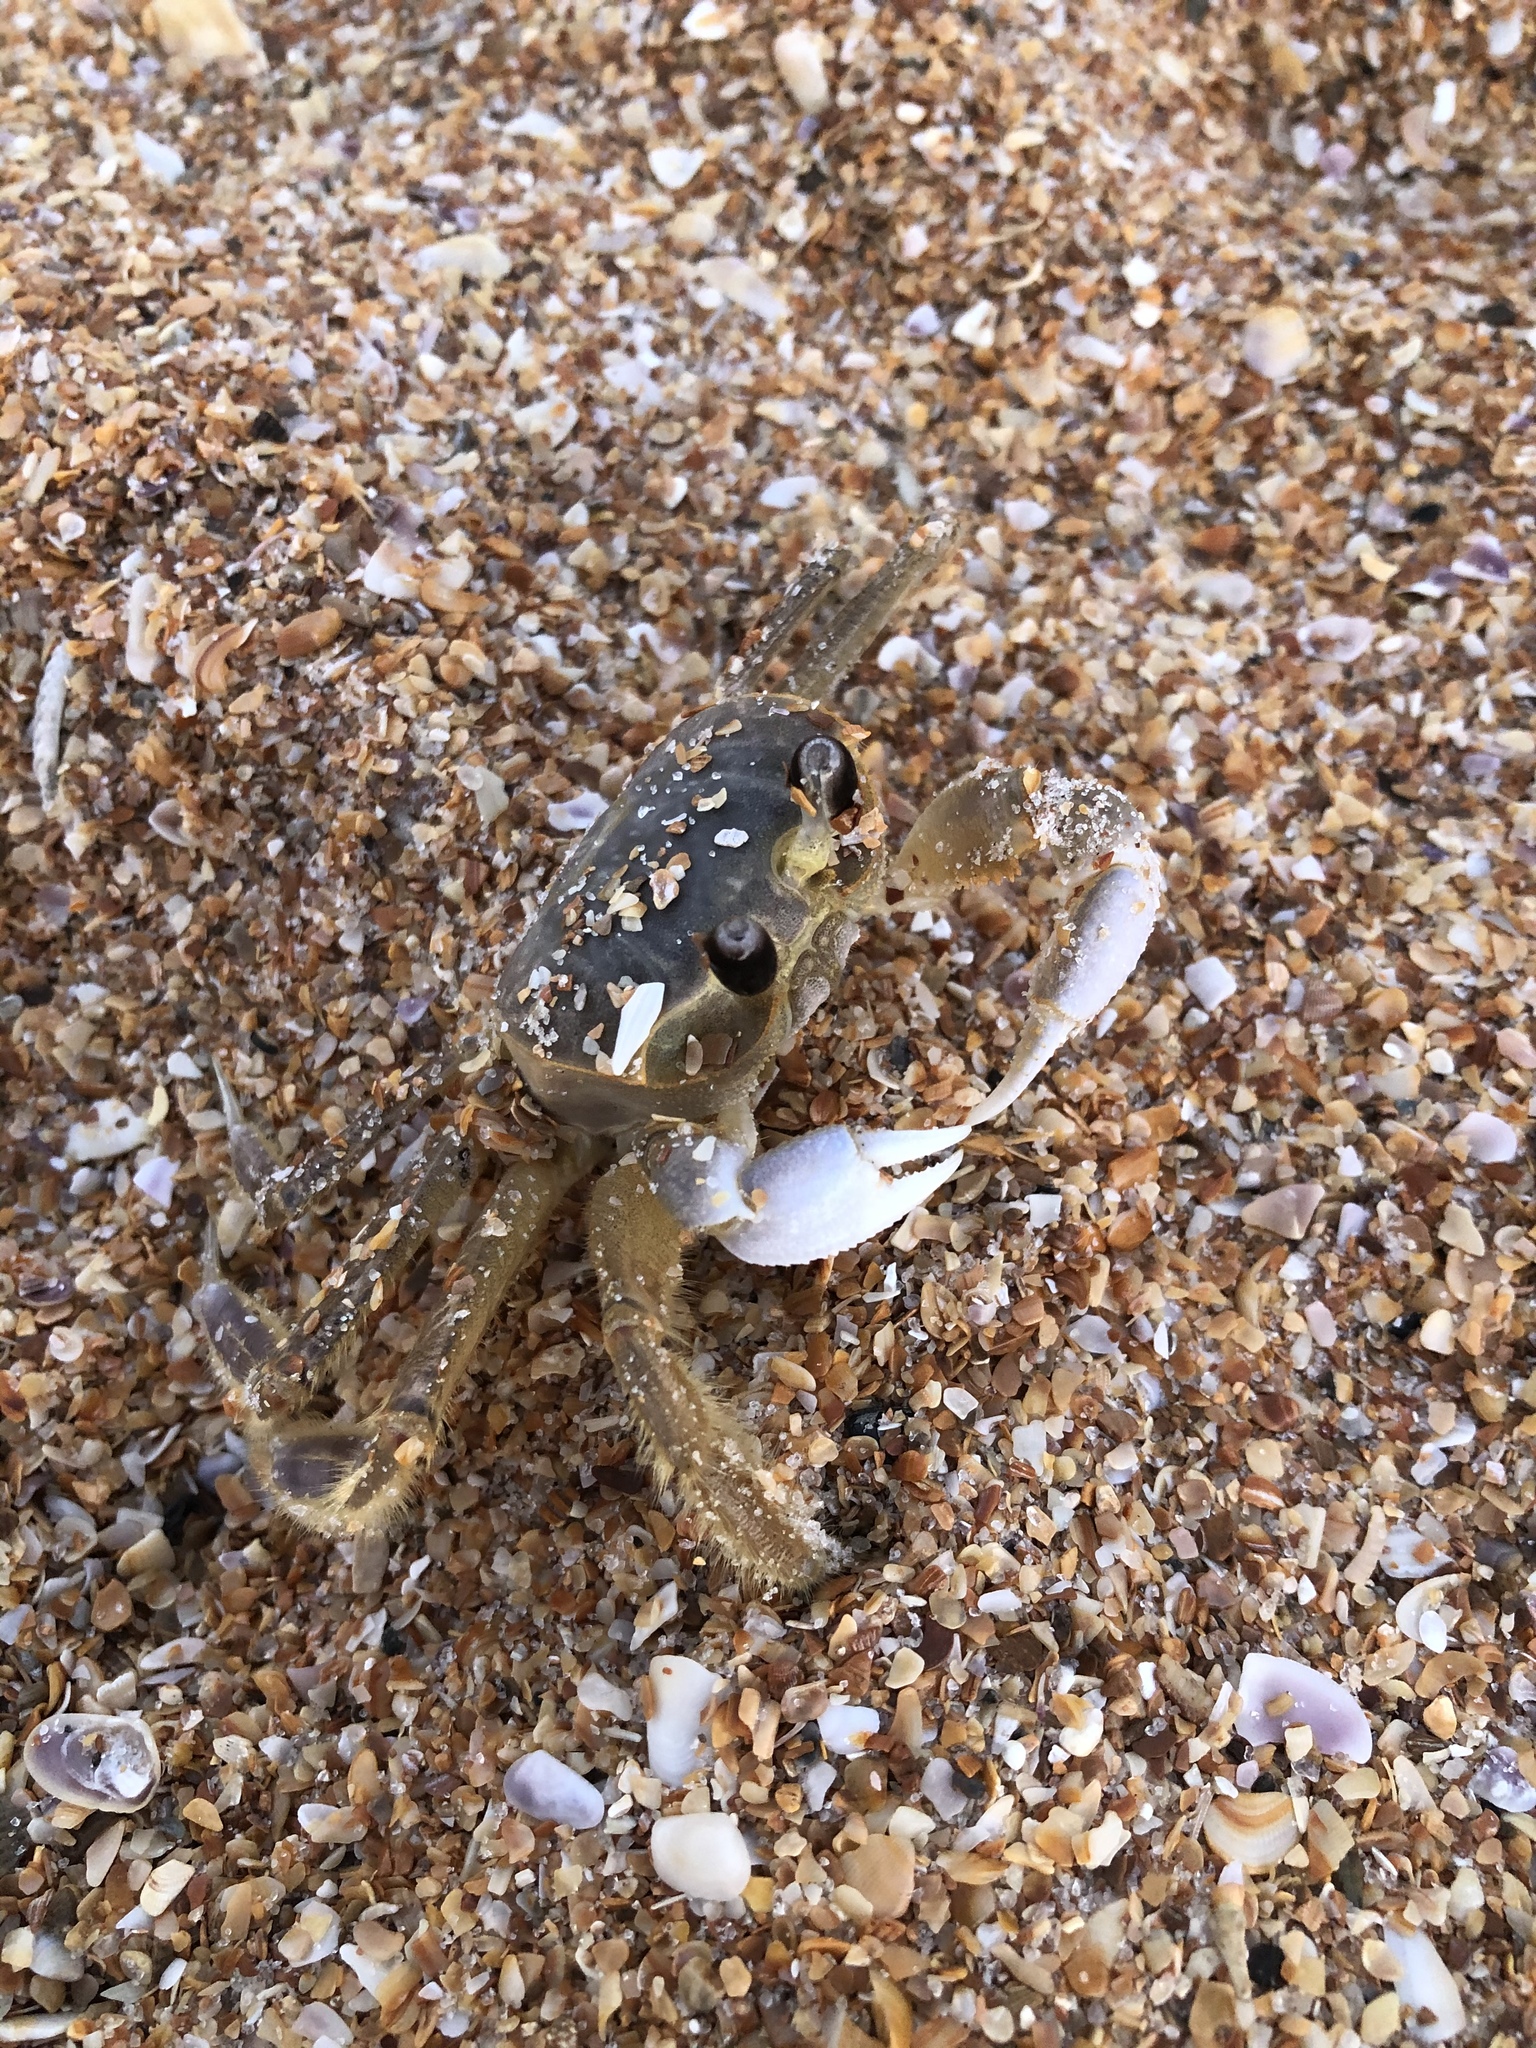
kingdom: Animalia
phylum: Arthropoda
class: Malacostraca
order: Decapoda
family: Ocypodidae
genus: Ocypode
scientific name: Ocypode quadrata
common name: Ghost crab
